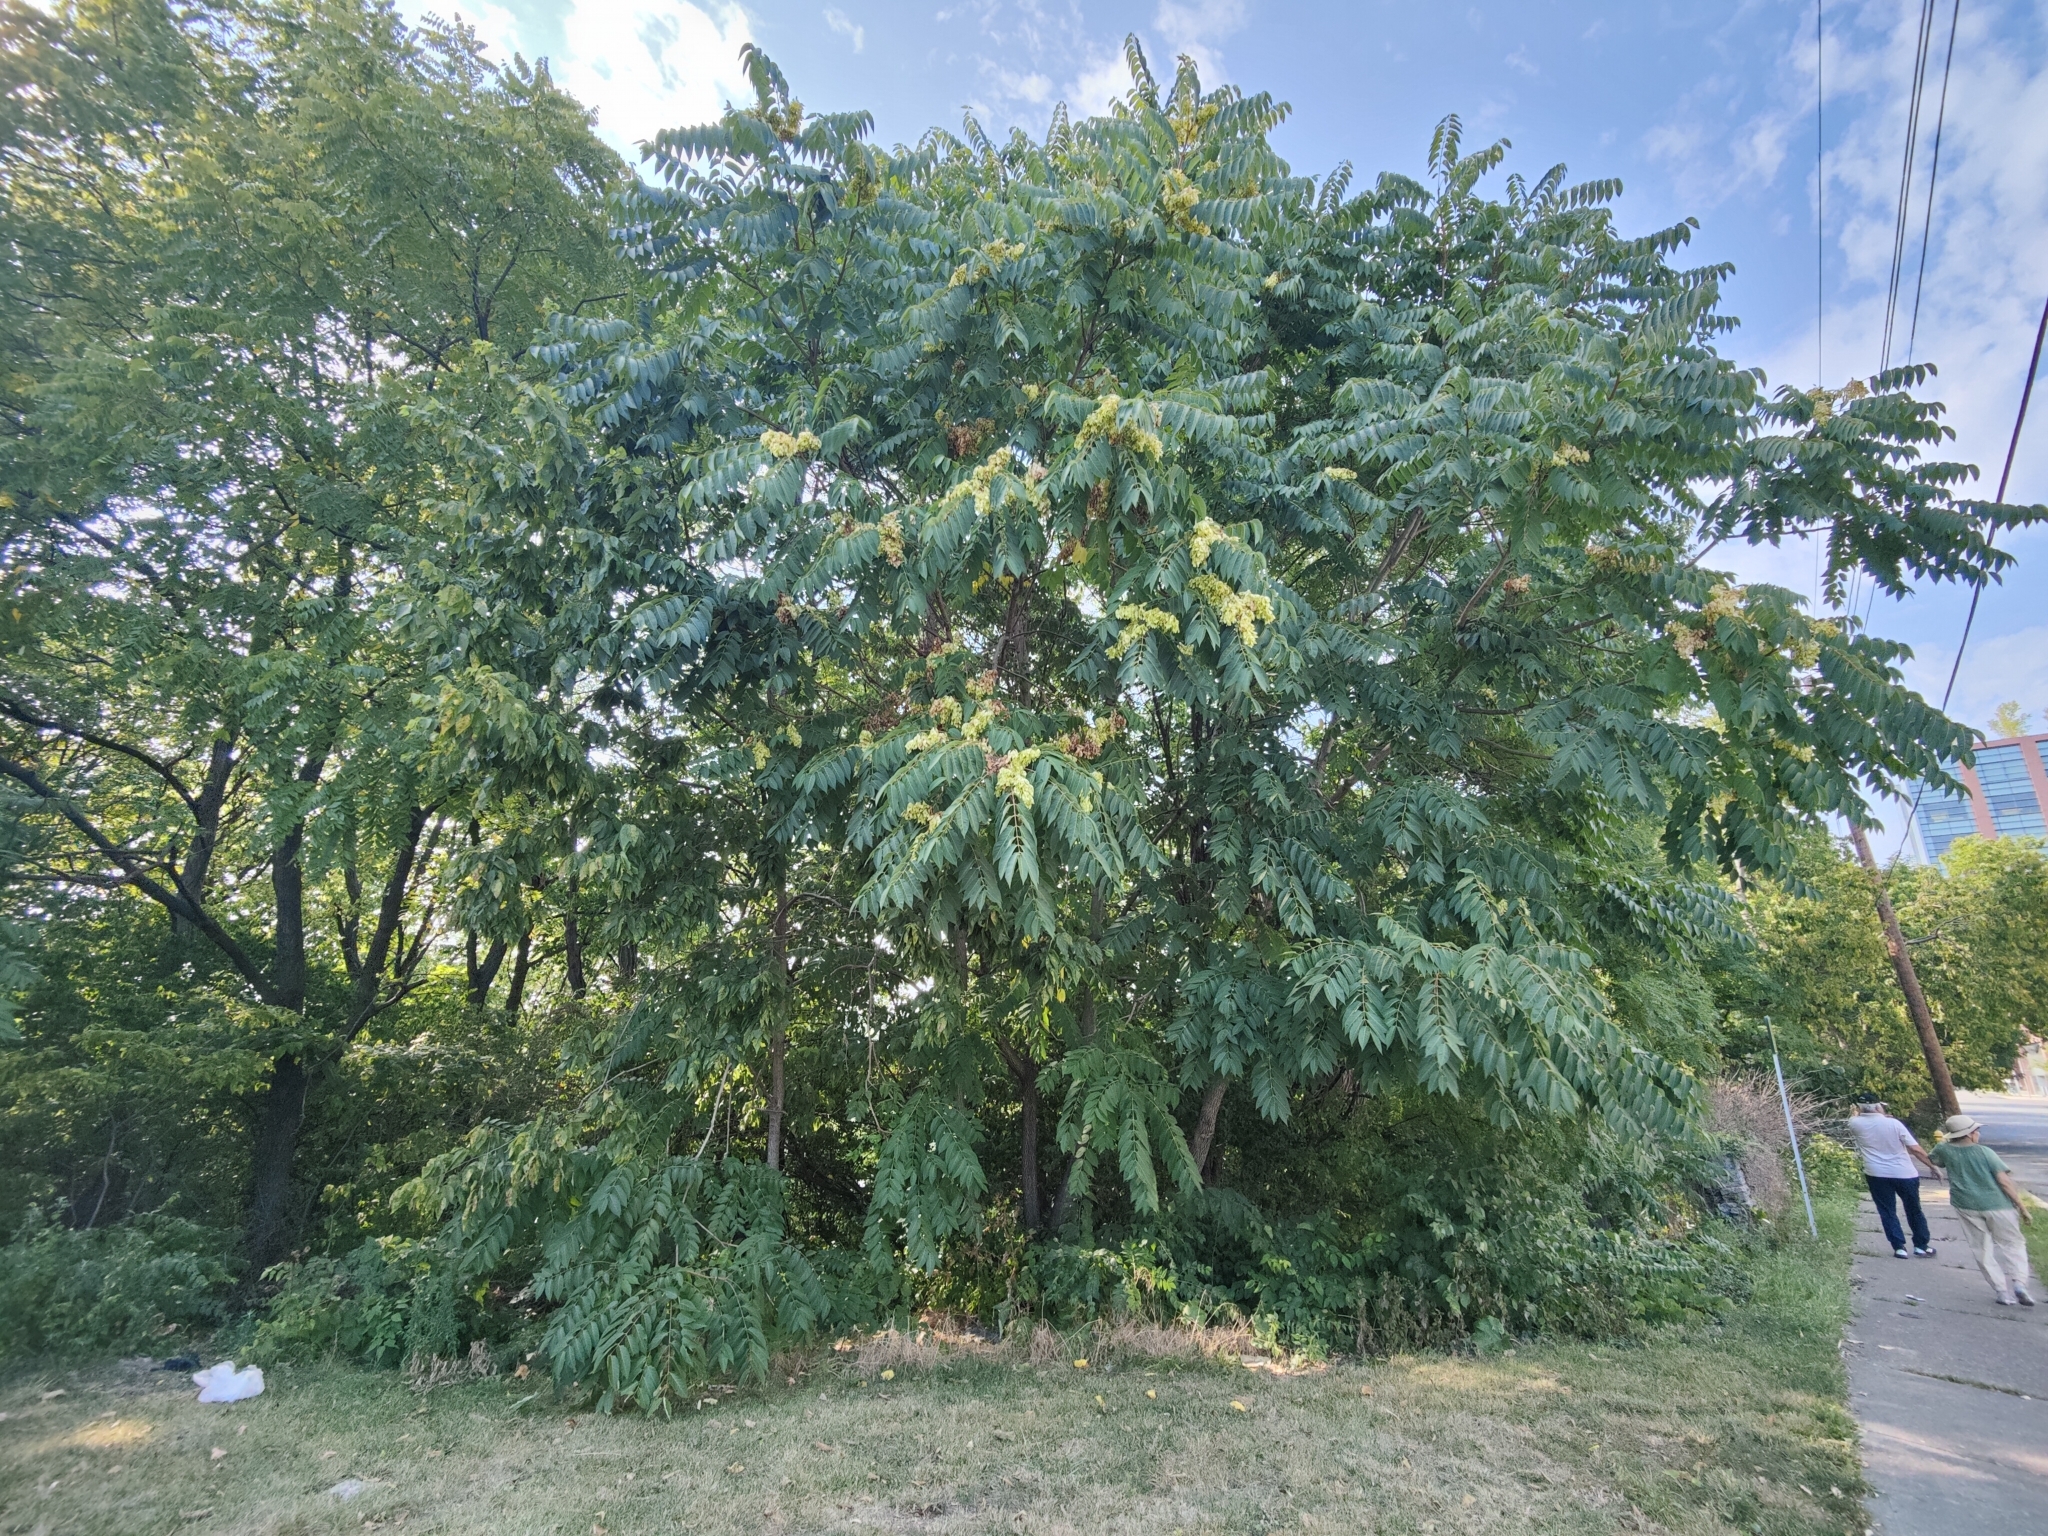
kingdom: Plantae
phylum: Tracheophyta
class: Magnoliopsida
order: Sapindales
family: Simaroubaceae
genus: Ailanthus
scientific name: Ailanthus altissima
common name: Tree-of-heaven
